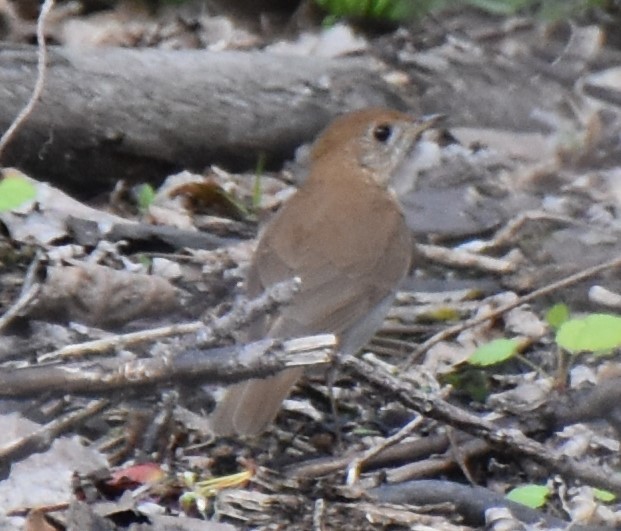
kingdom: Animalia
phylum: Chordata
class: Aves
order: Passeriformes
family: Turdidae
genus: Catharus
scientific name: Catharus fuscescens
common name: Veery
